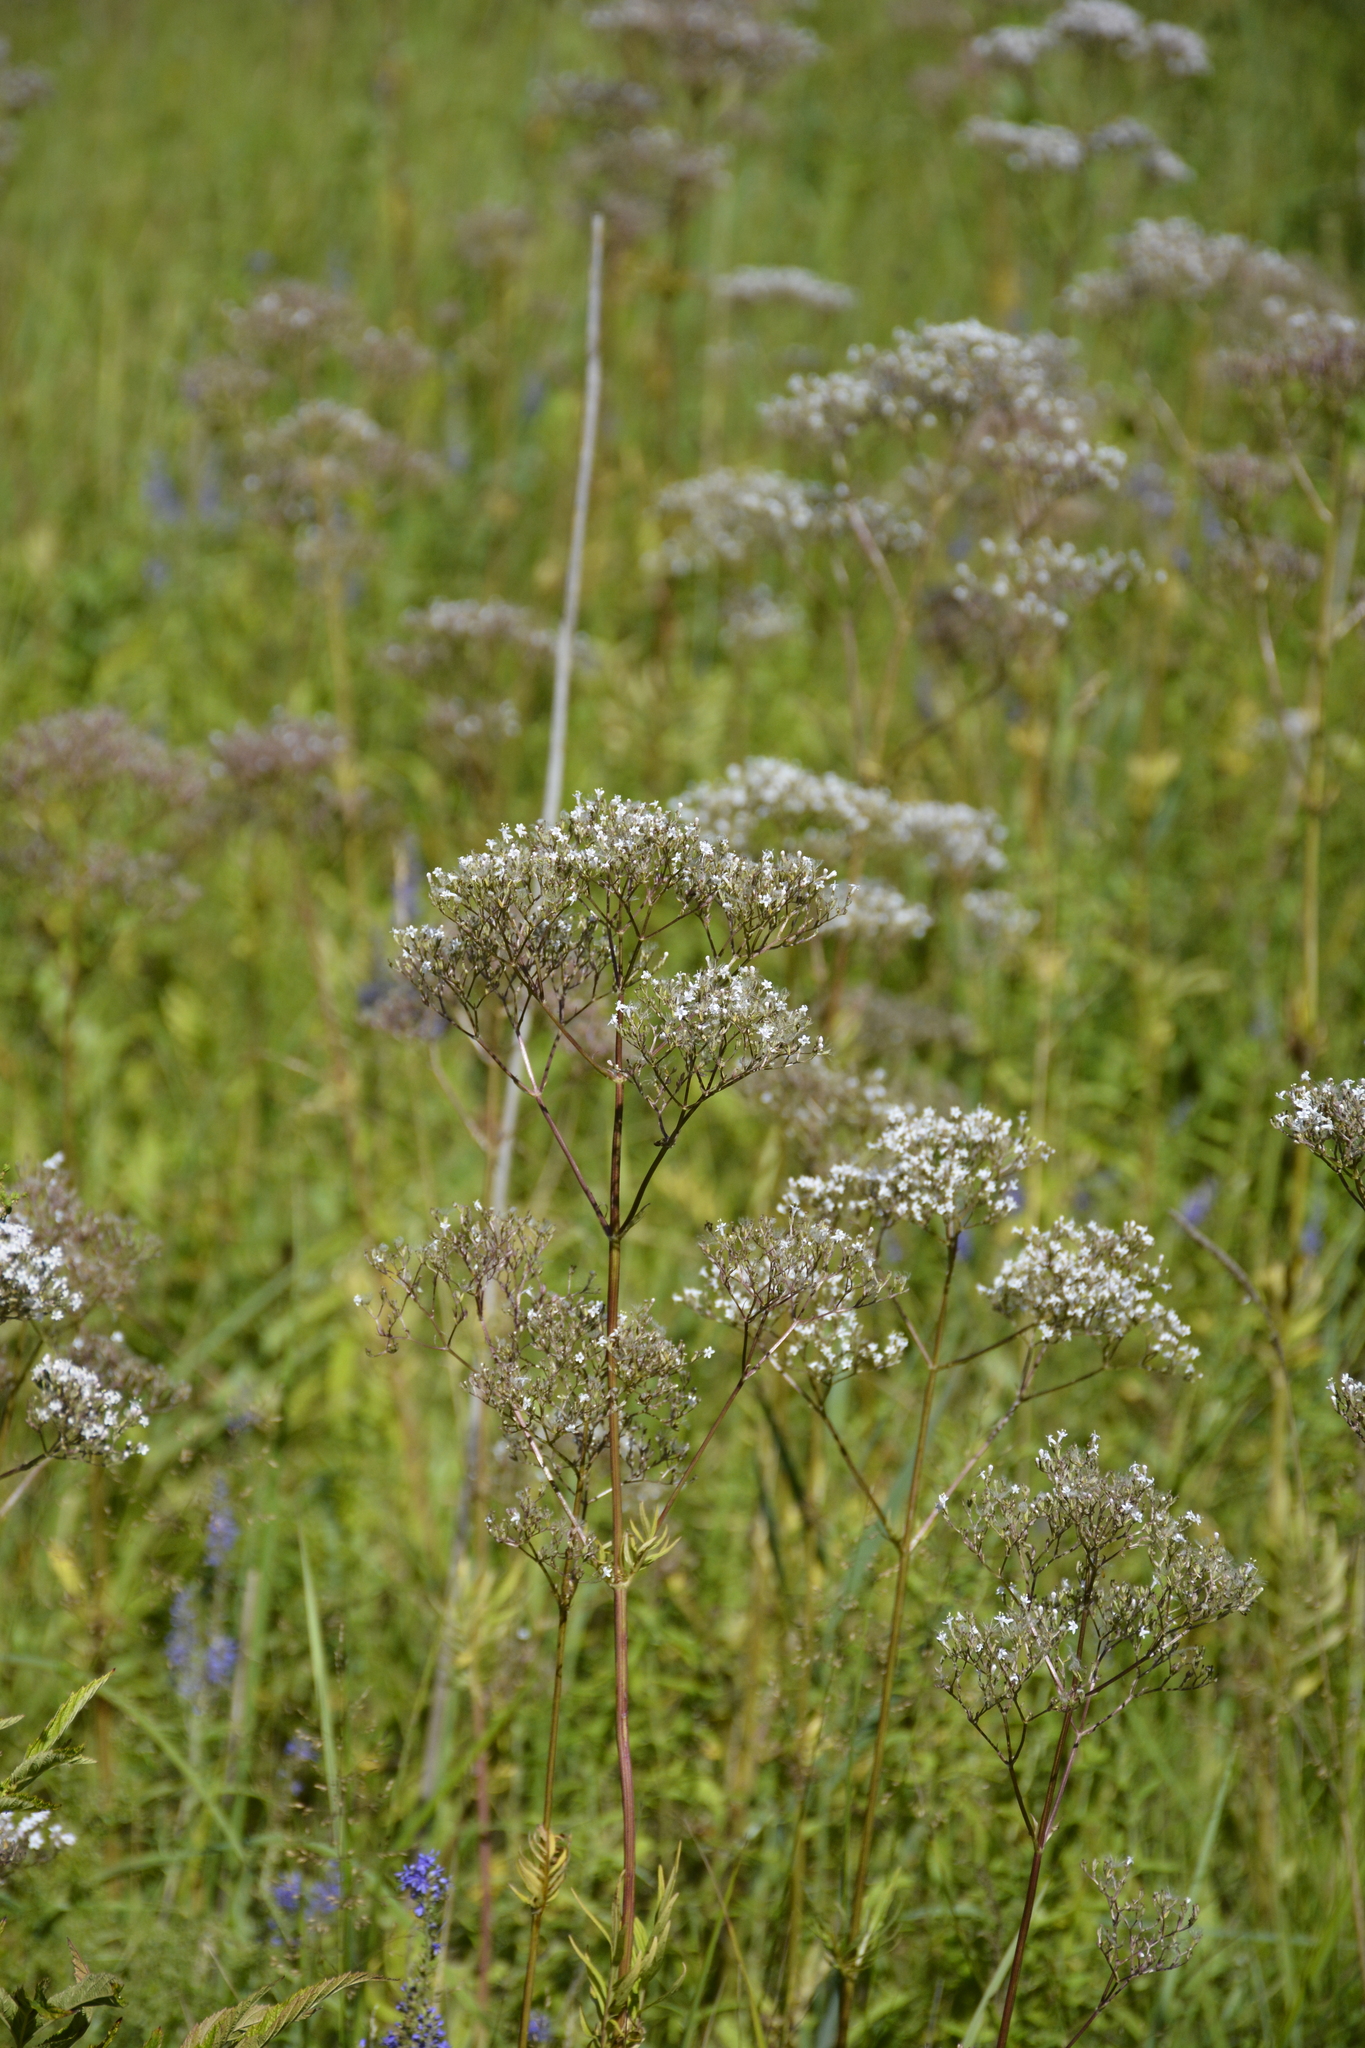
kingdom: Plantae
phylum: Tracheophyta
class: Magnoliopsida
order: Dipsacales
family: Caprifoliaceae
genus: Valeriana
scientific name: Valeriana officinalis
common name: Common valerian
